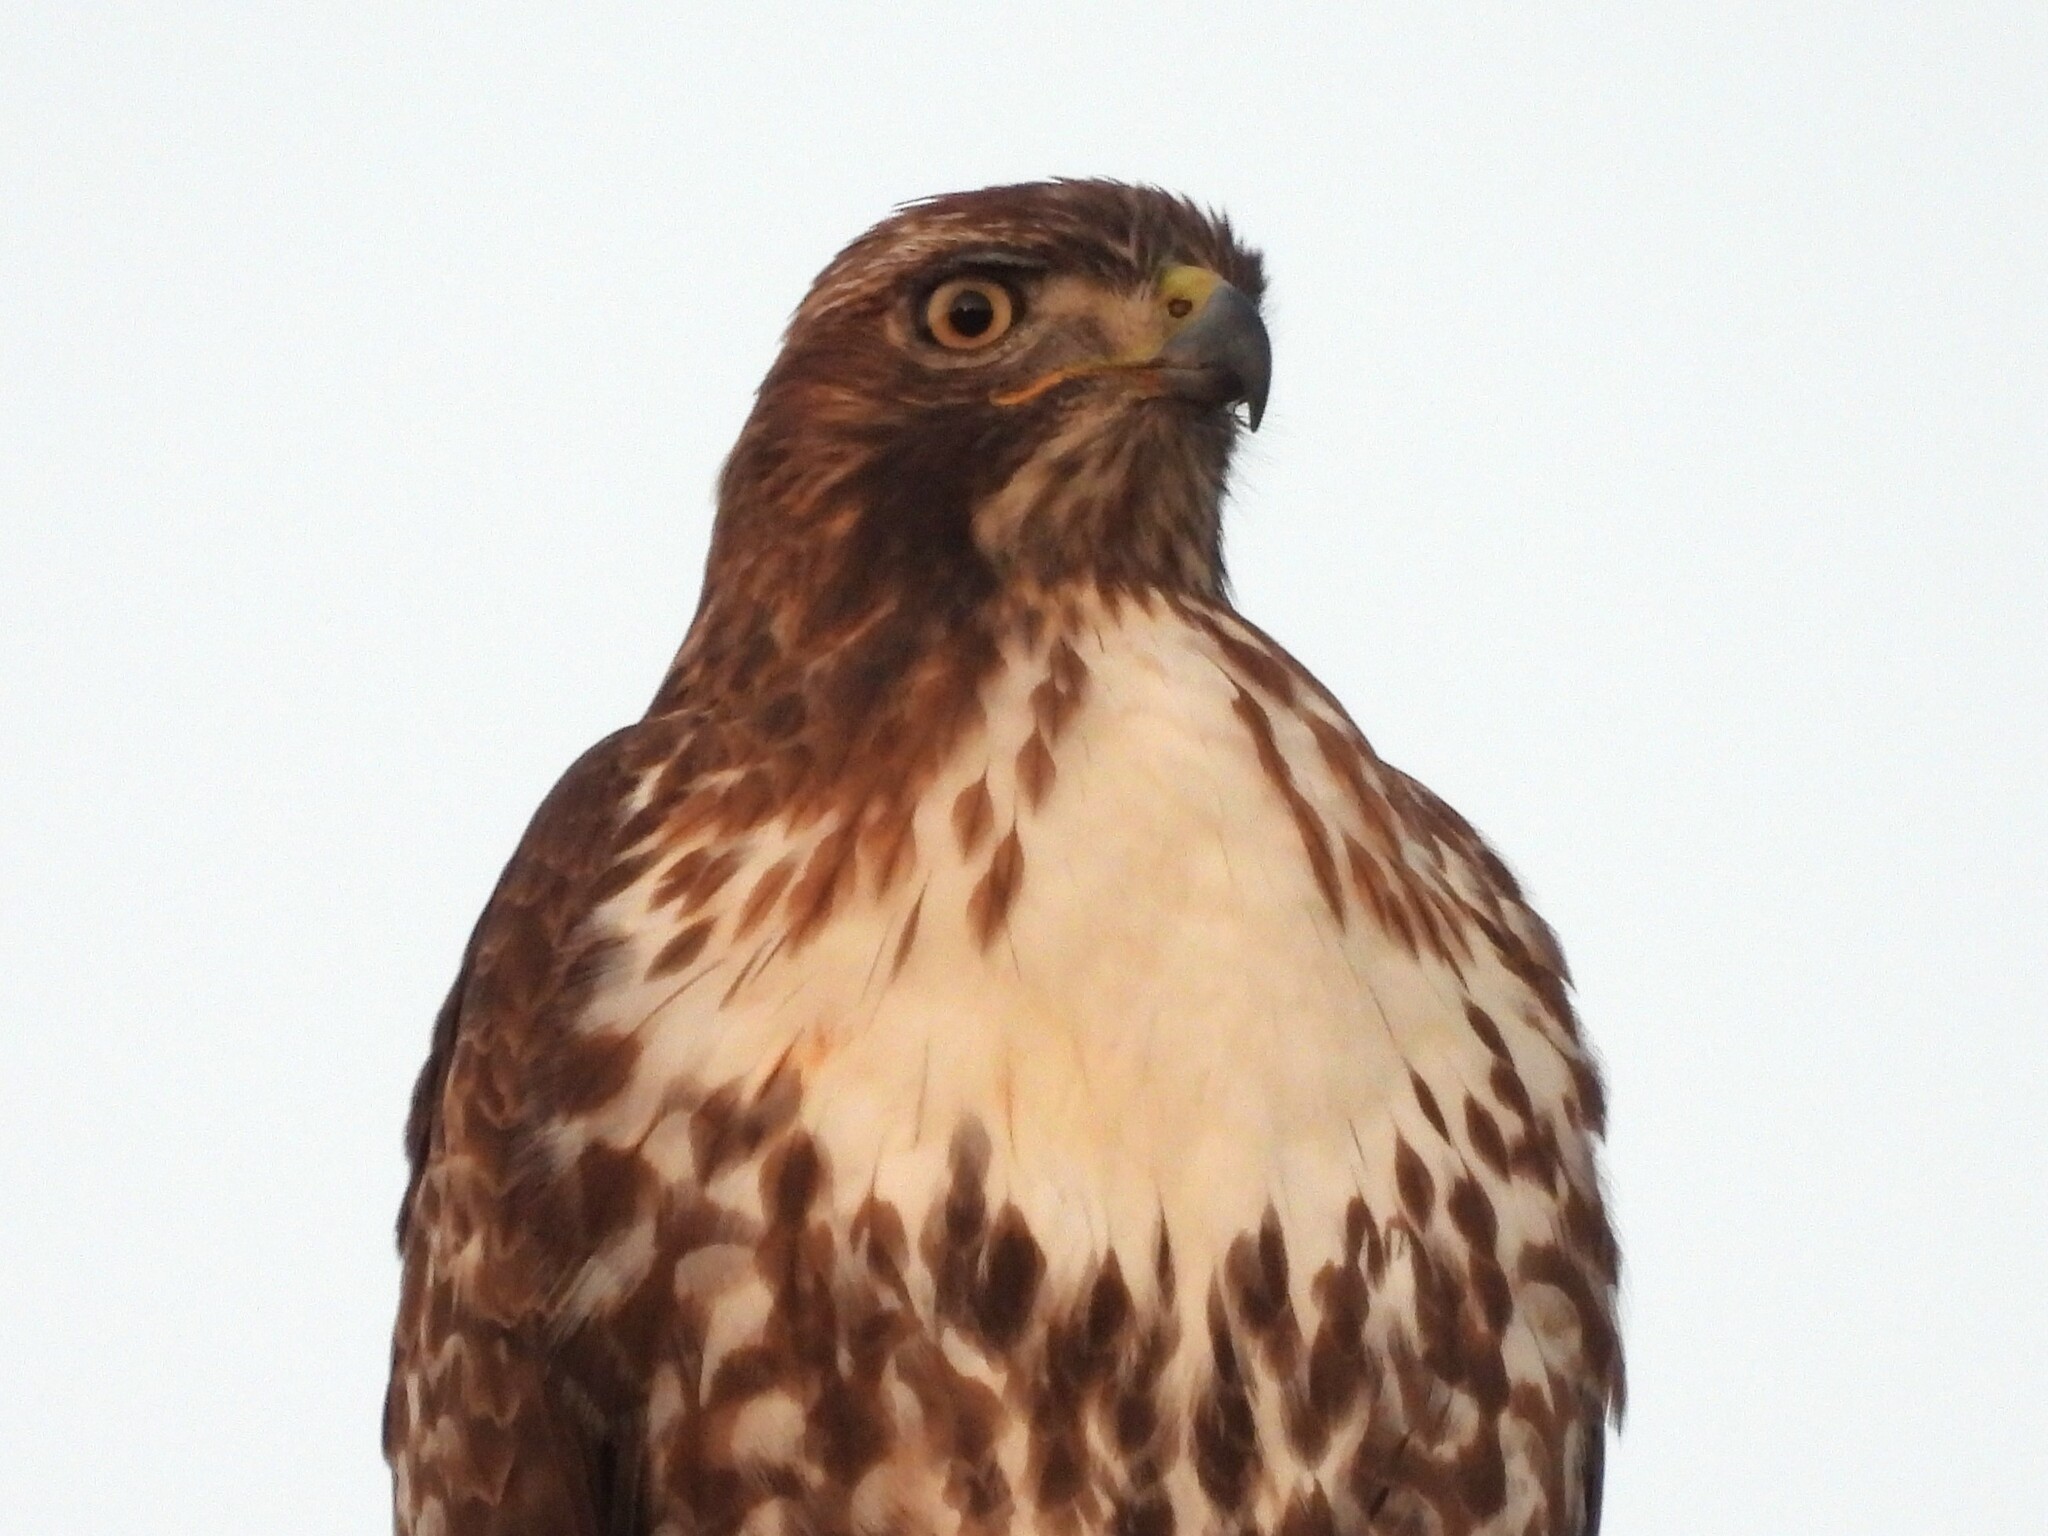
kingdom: Animalia
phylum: Chordata
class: Aves
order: Accipitriformes
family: Accipitridae
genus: Buteo
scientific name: Buteo jamaicensis
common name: Red-tailed hawk
